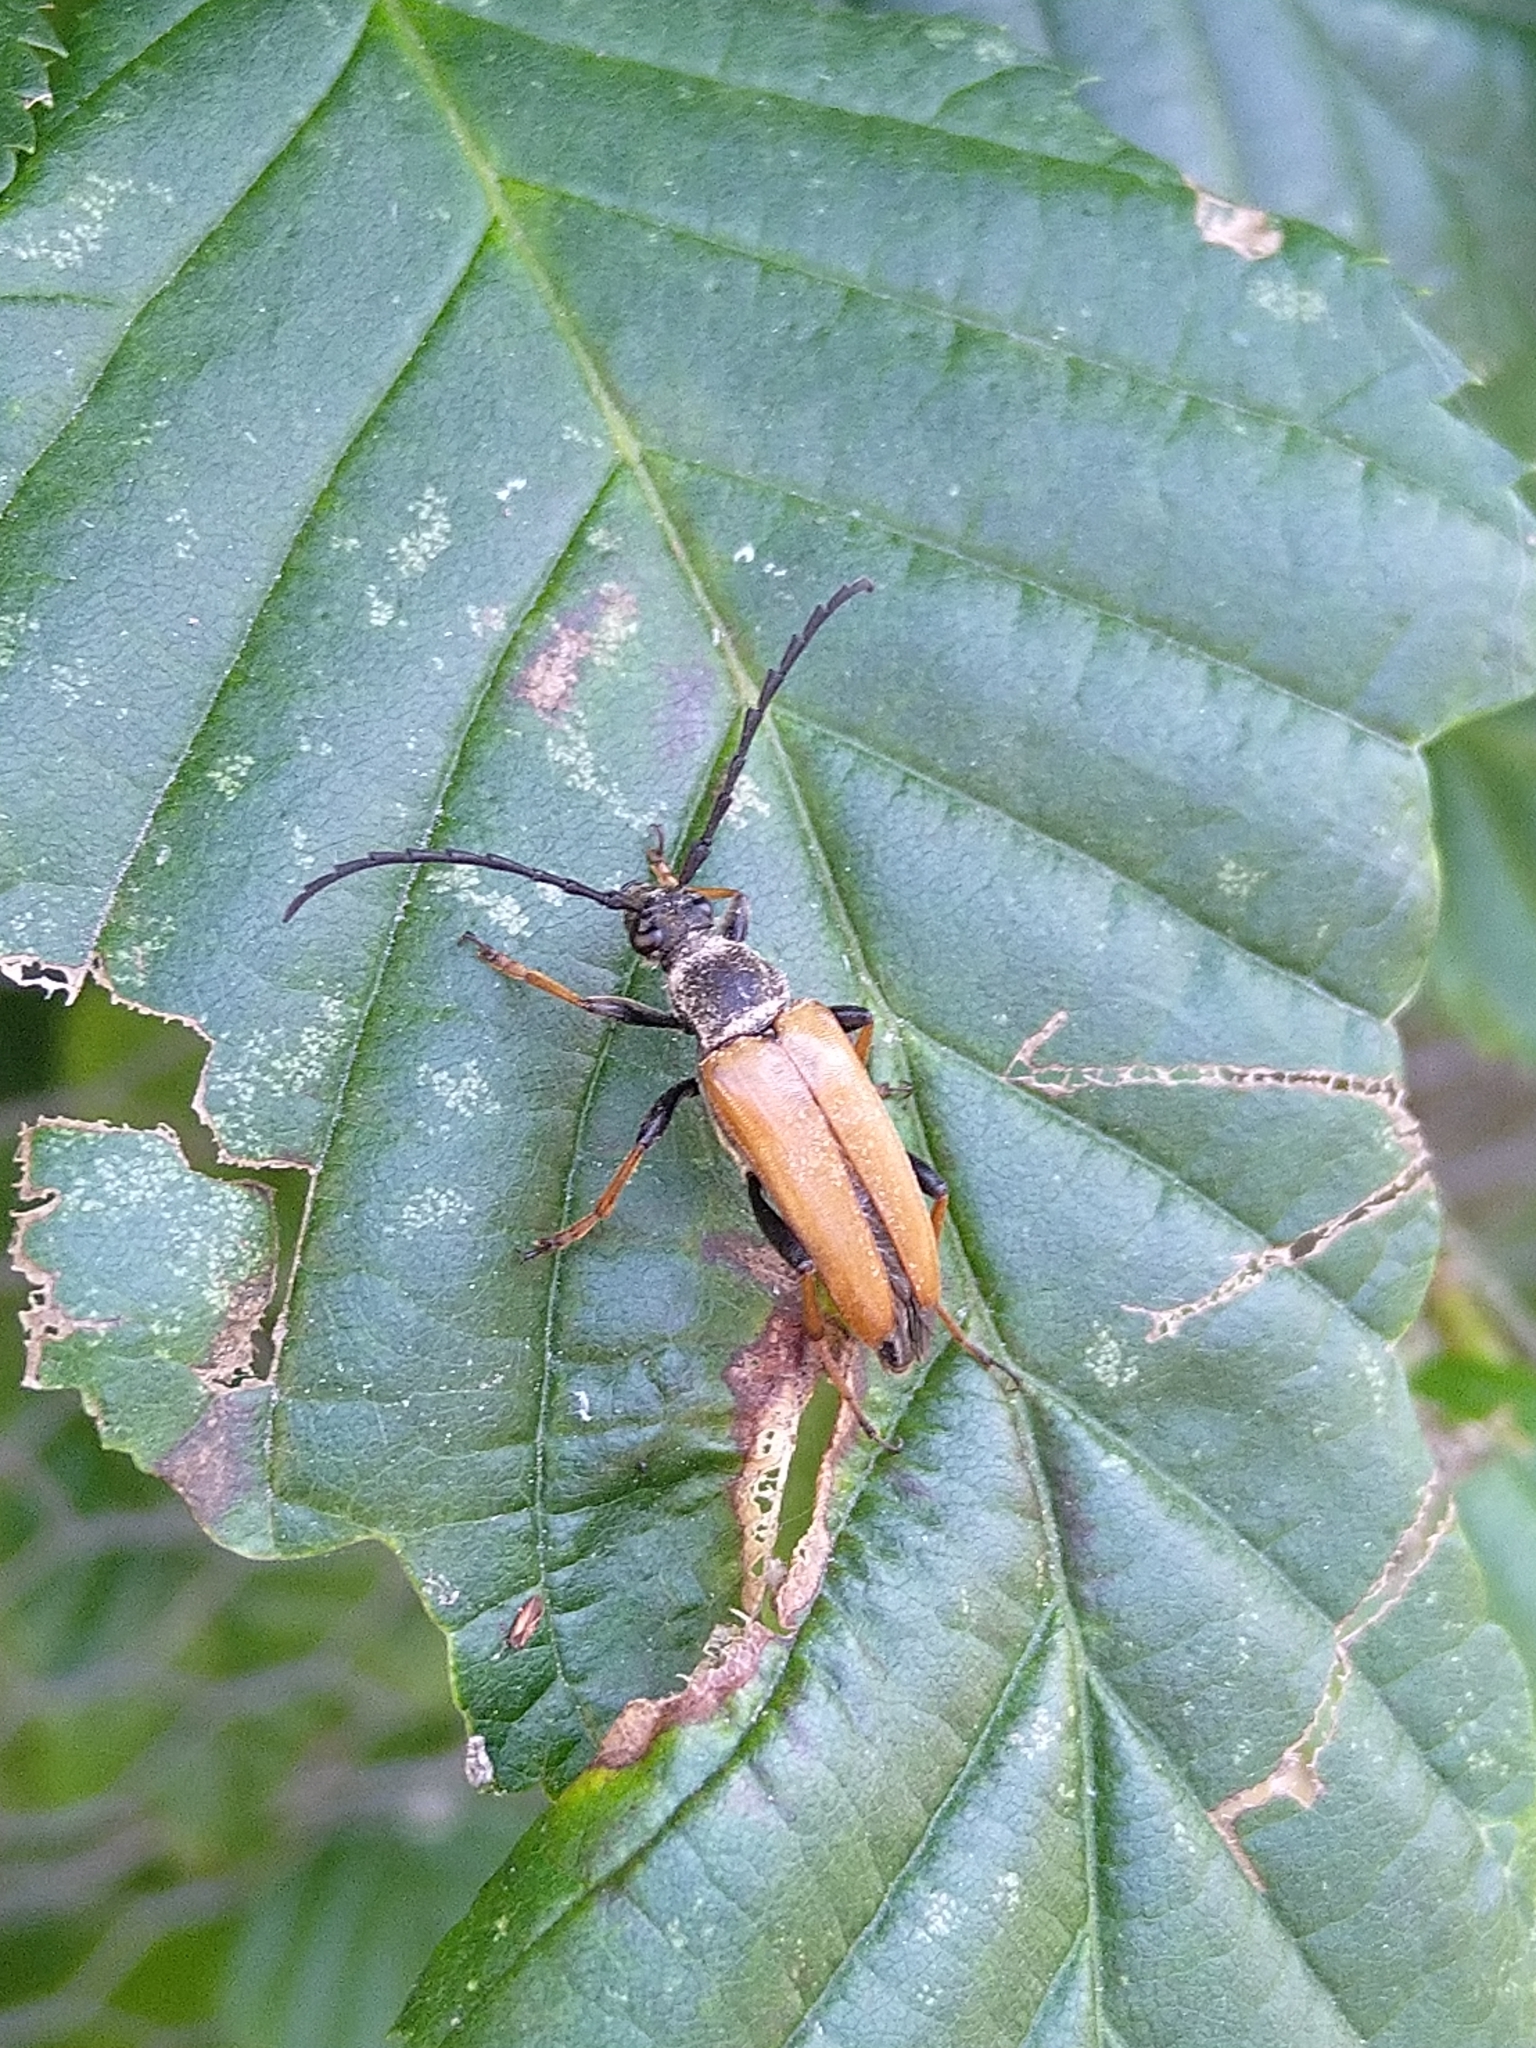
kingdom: Animalia
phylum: Arthropoda
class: Insecta
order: Coleoptera
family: Cerambycidae
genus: Stictoleptura
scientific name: Stictoleptura rubra
